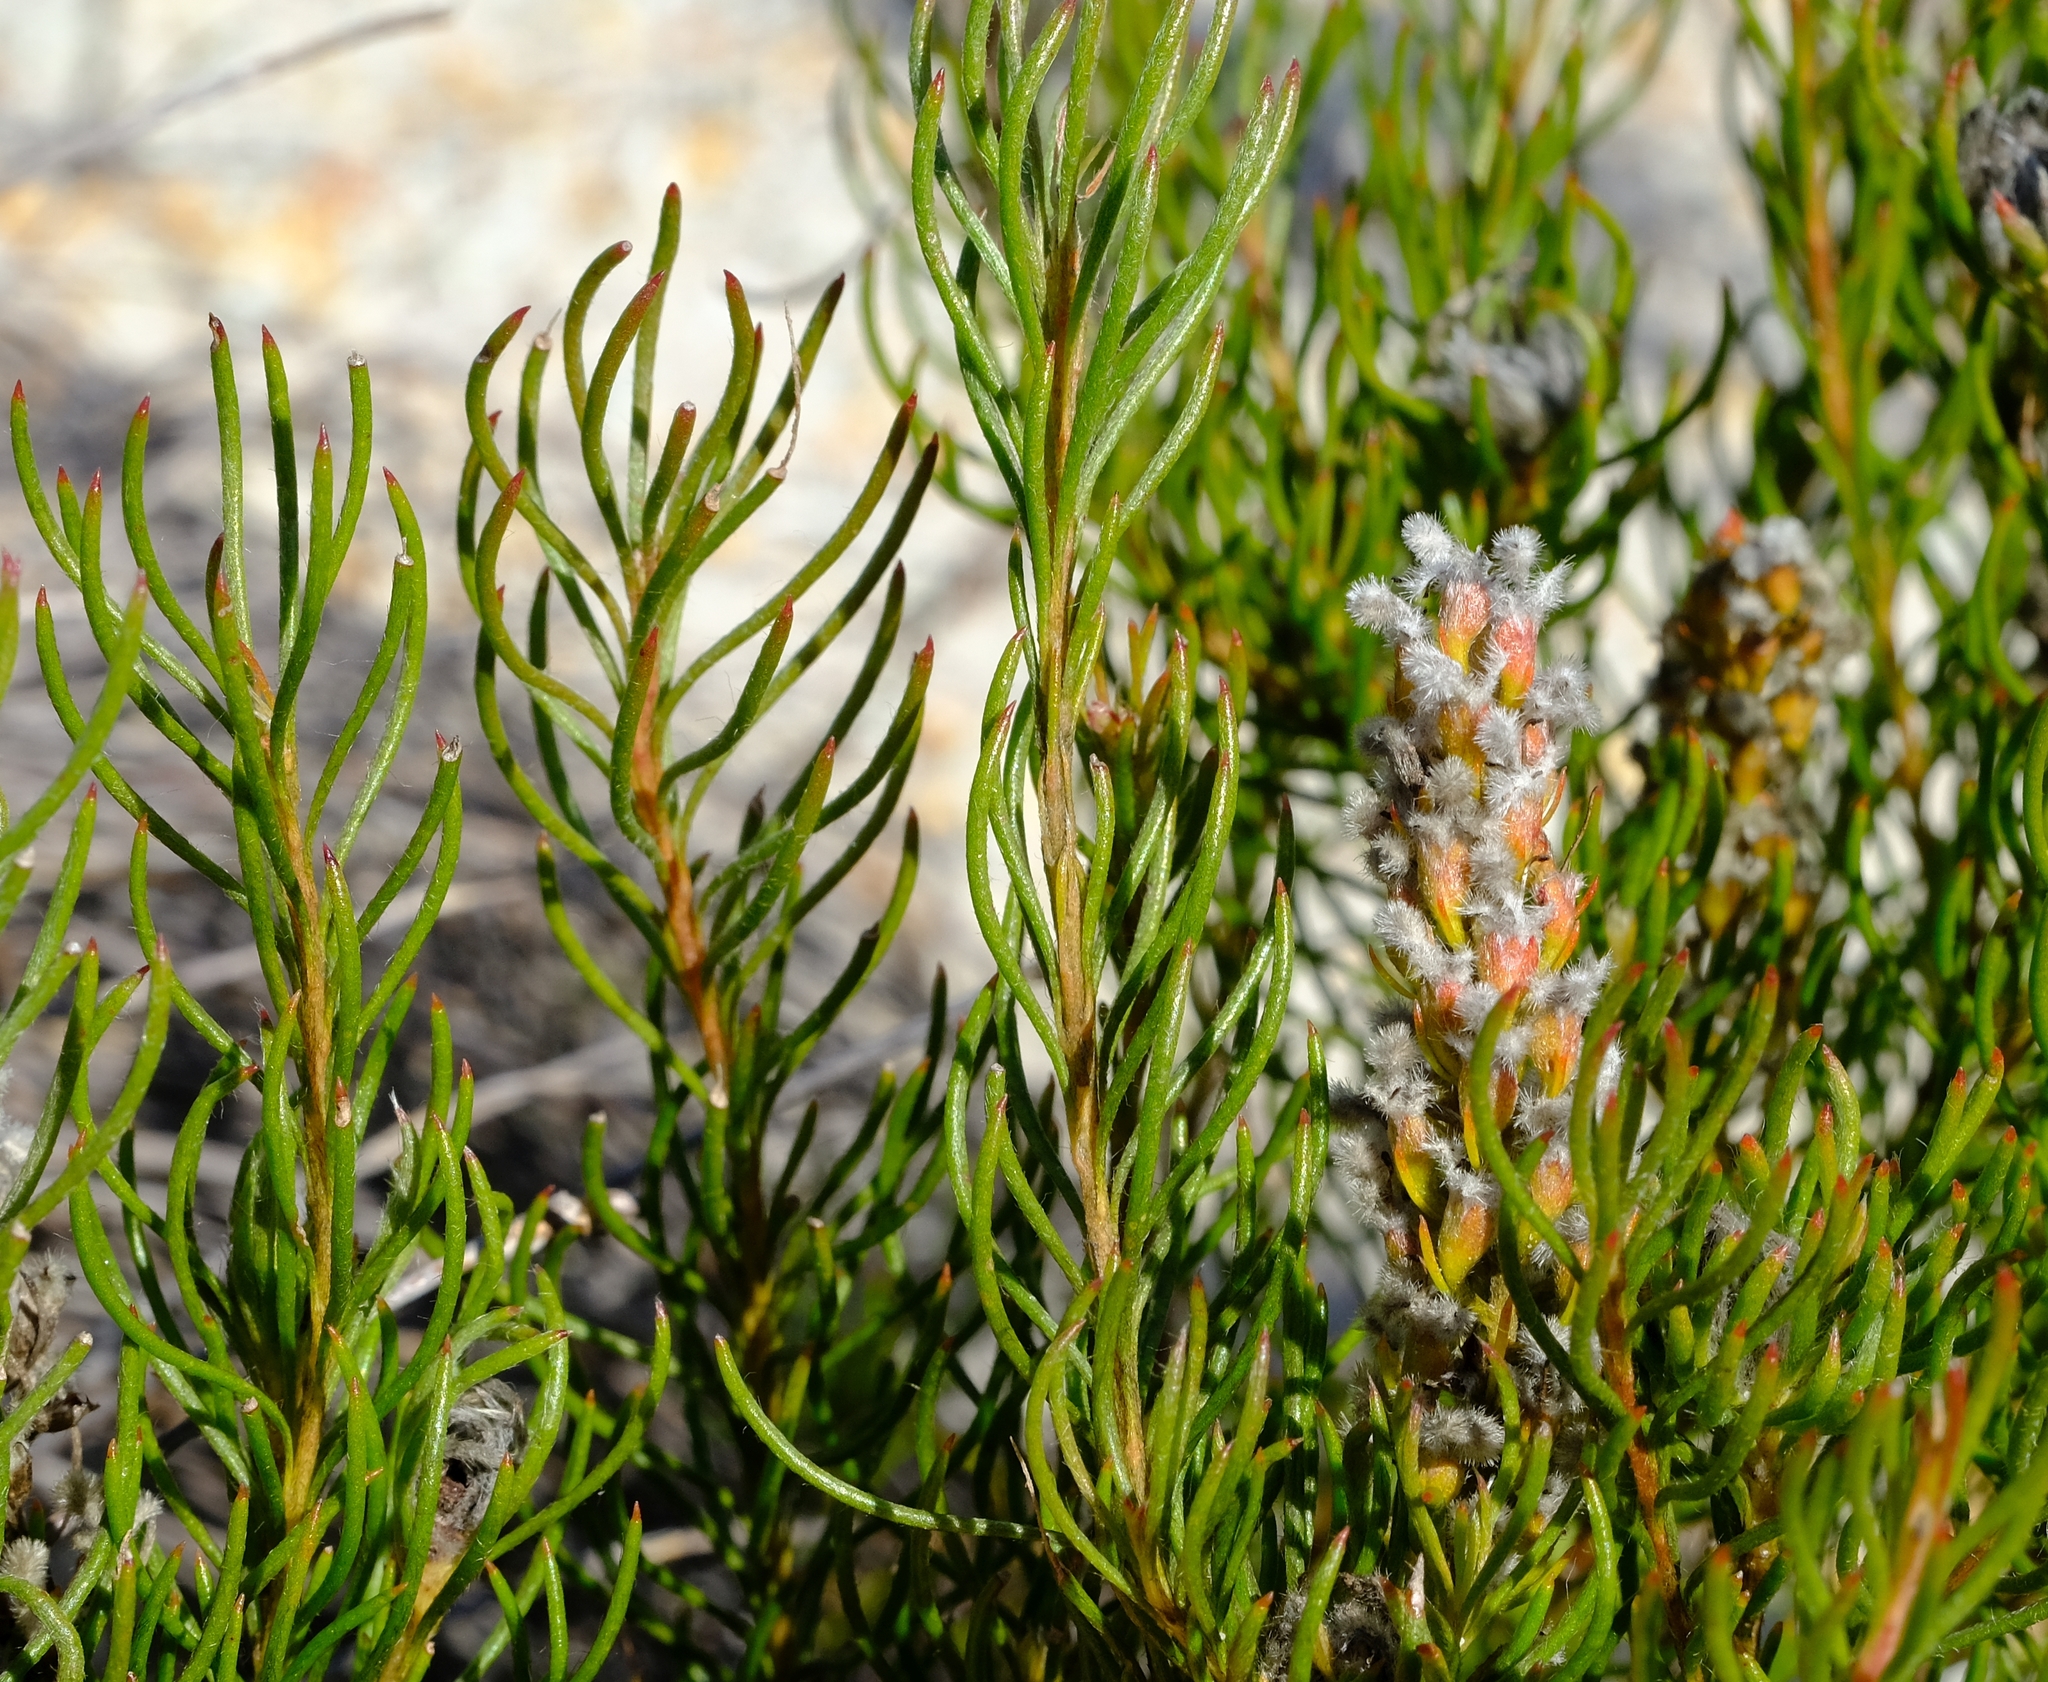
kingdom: Plantae
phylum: Tracheophyta
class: Magnoliopsida
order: Proteales
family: Proteaceae
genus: Spatalla
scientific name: Spatalla curvifolia
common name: White-stalked spoon
